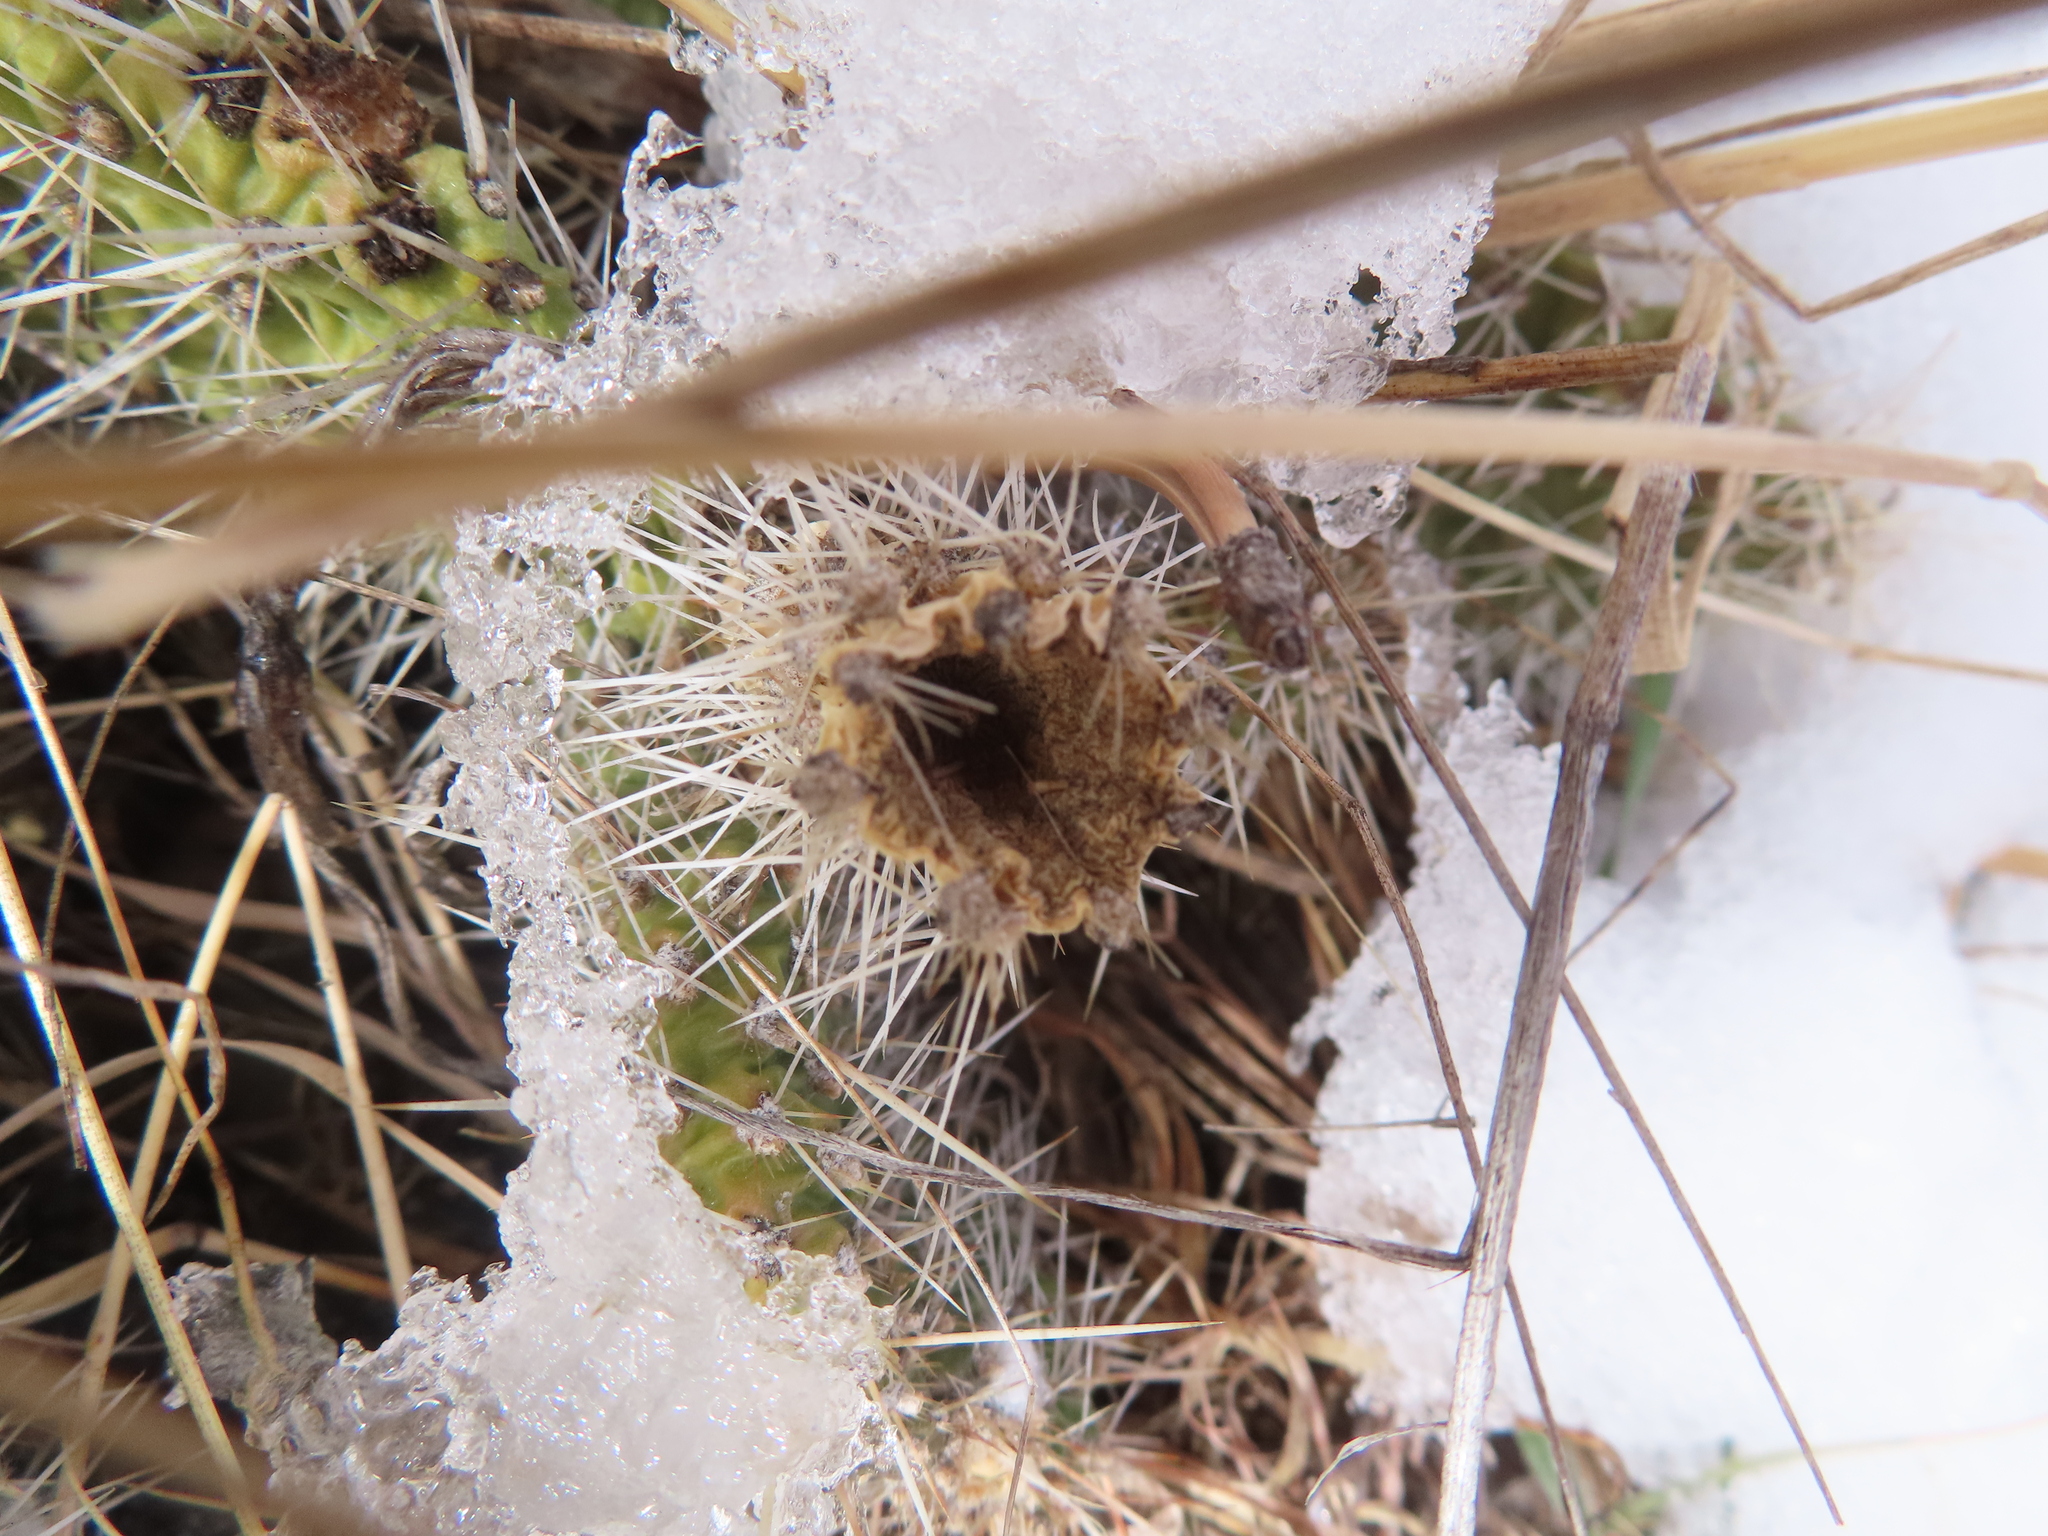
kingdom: Plantae
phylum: Tracheophyta
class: Magnoliopsida
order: Caryophyllales
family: Cactaceae
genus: Opuntia
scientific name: Opuntia polyacantha
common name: Plains prickly-pear
